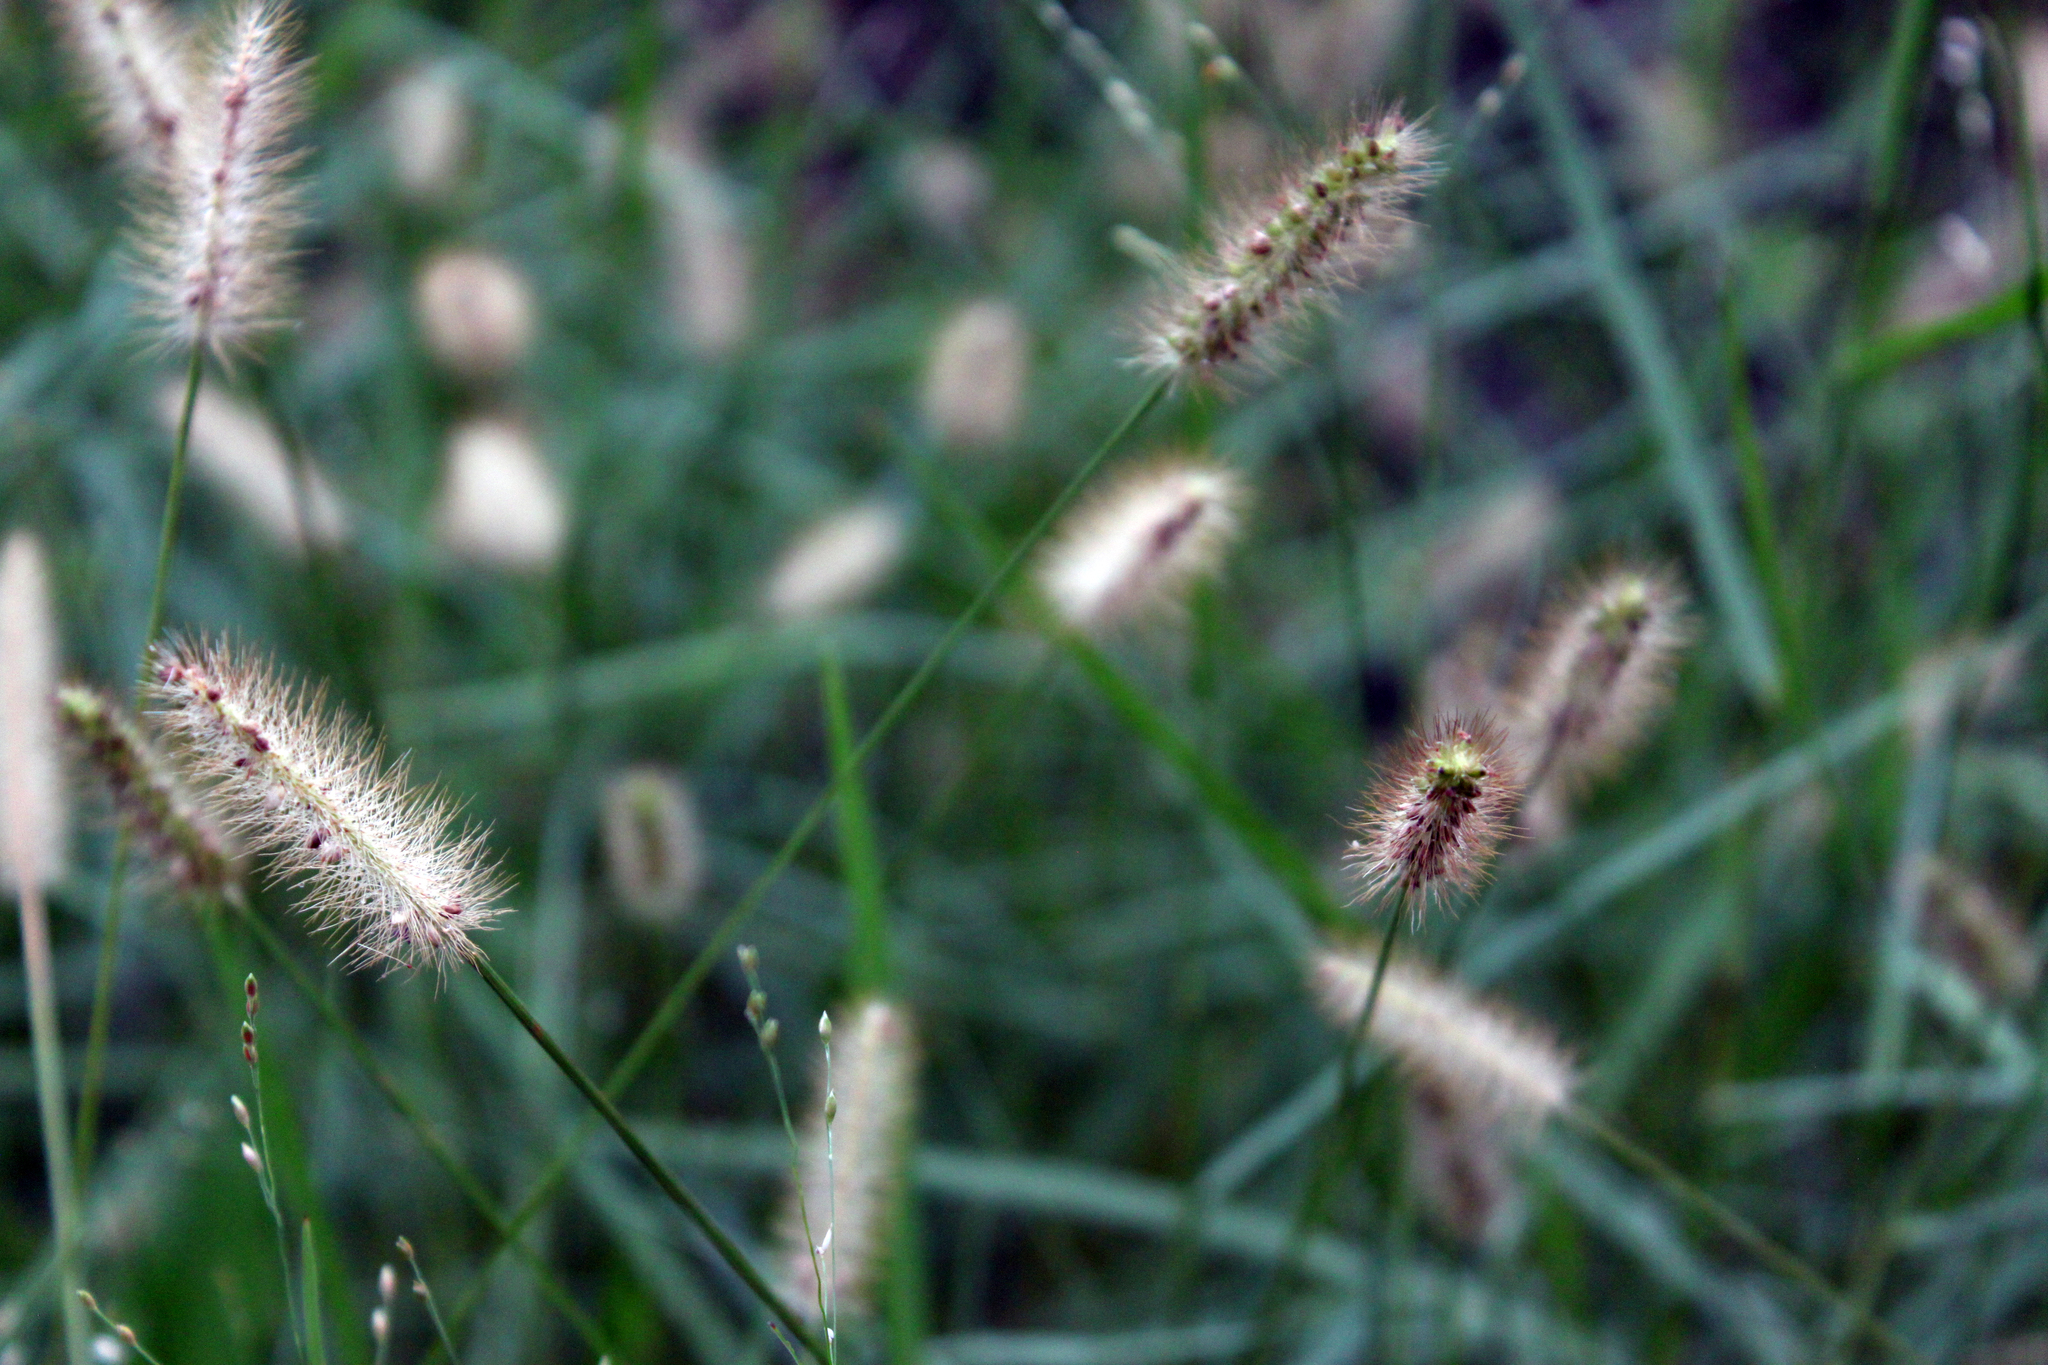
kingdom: Plantae
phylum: Tracheophyta
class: Liliopsida
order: Poales
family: Poaceae
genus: Setaria
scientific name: Setaria parviflora
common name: Knotroot bristle-grass
